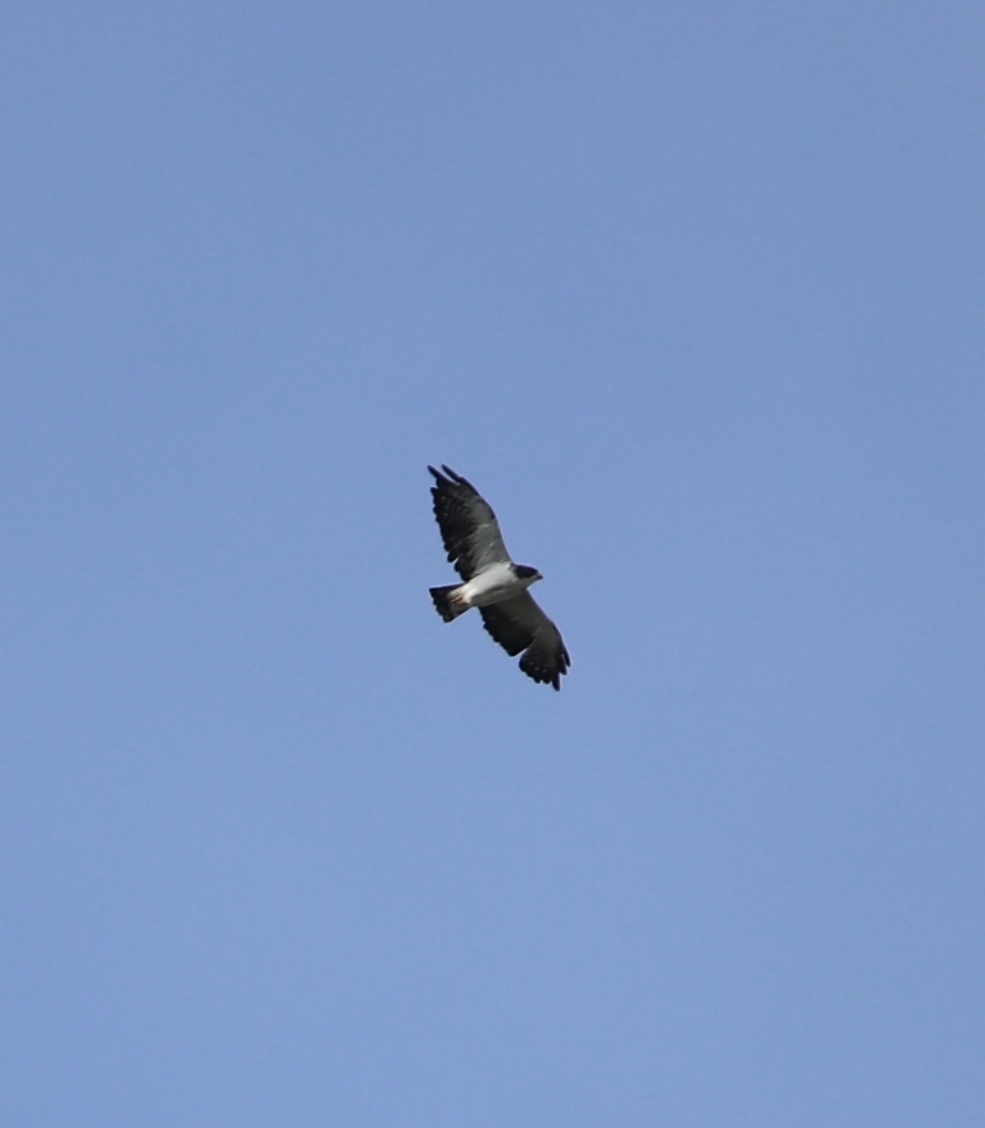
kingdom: Animalia
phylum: Chordata
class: Aves
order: Accipitriformes
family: Accipitridae
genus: Buteo
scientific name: Buteo brachyurus
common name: Short-tailed hawk
